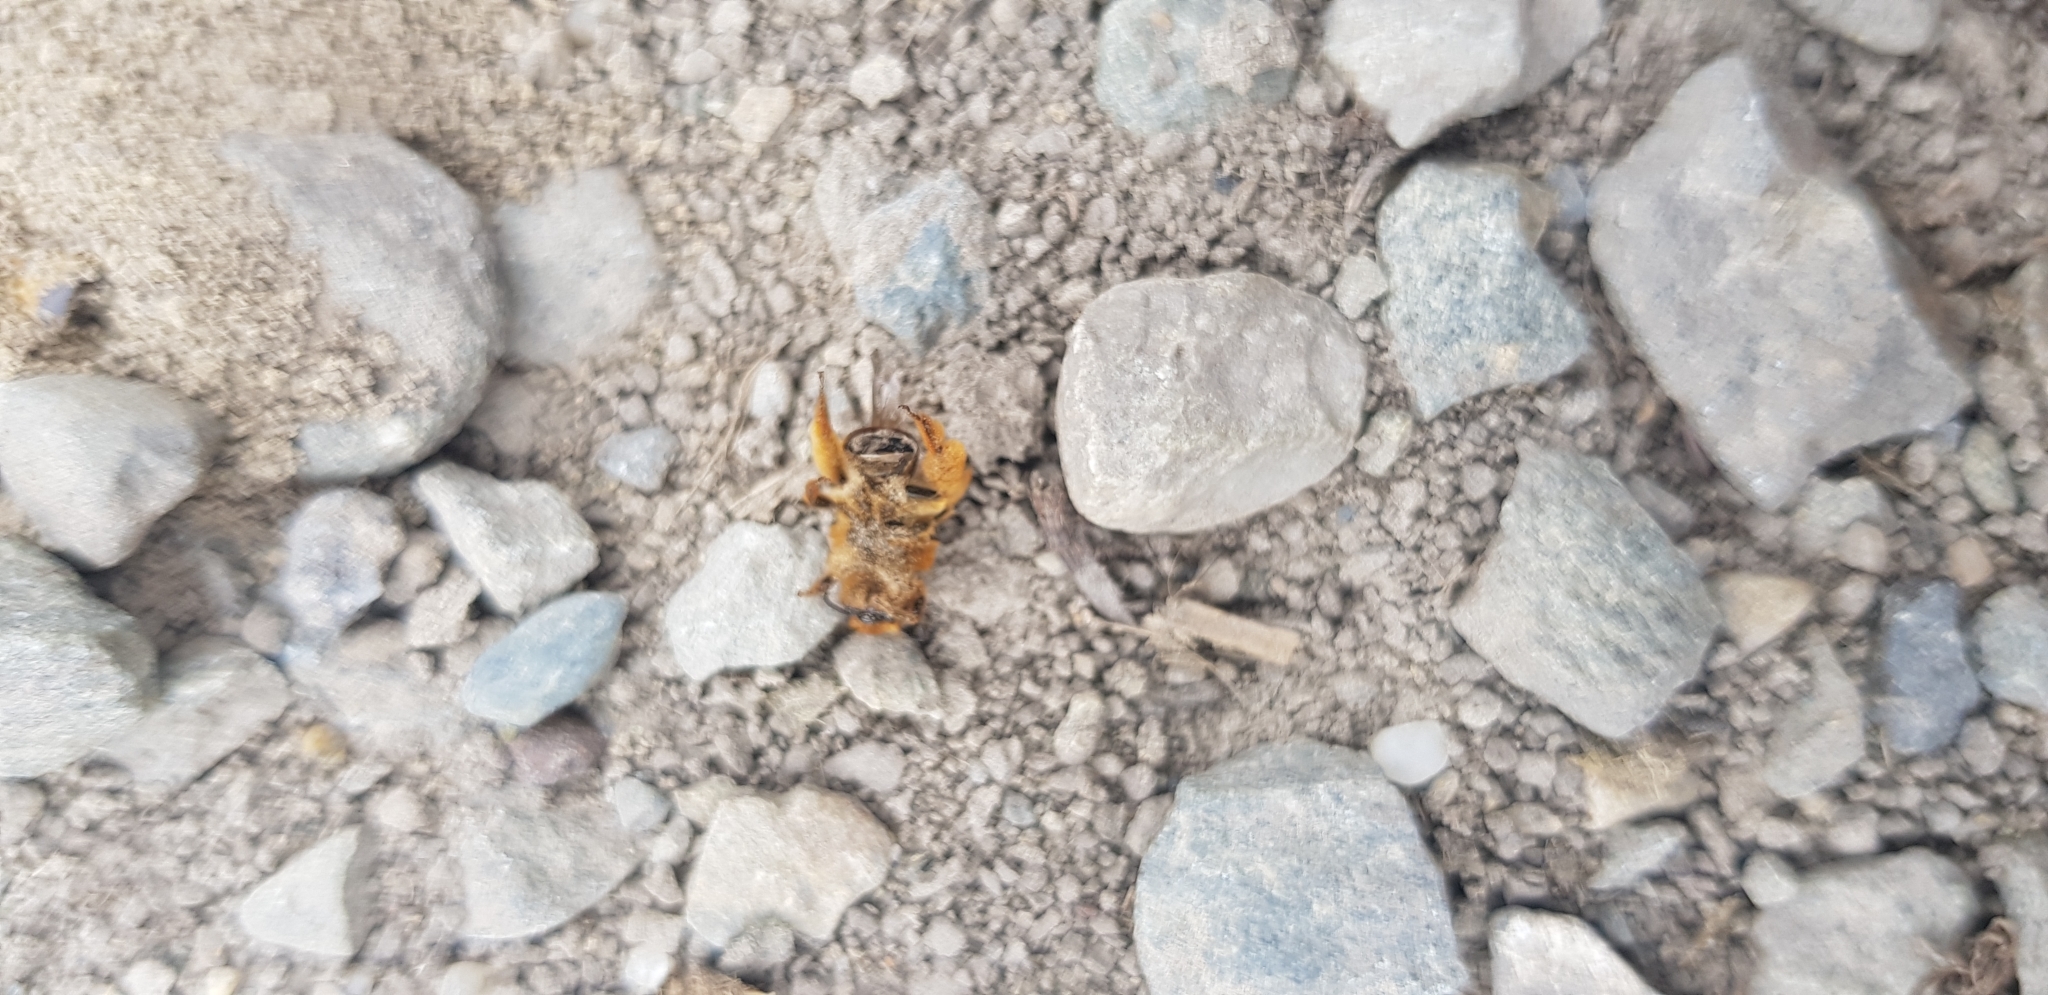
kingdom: Animalia
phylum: Arthropoda
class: Insecta
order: Hymenoptera
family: Colletidae
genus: Leioproctus
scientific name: Leioproctus fulvescens
